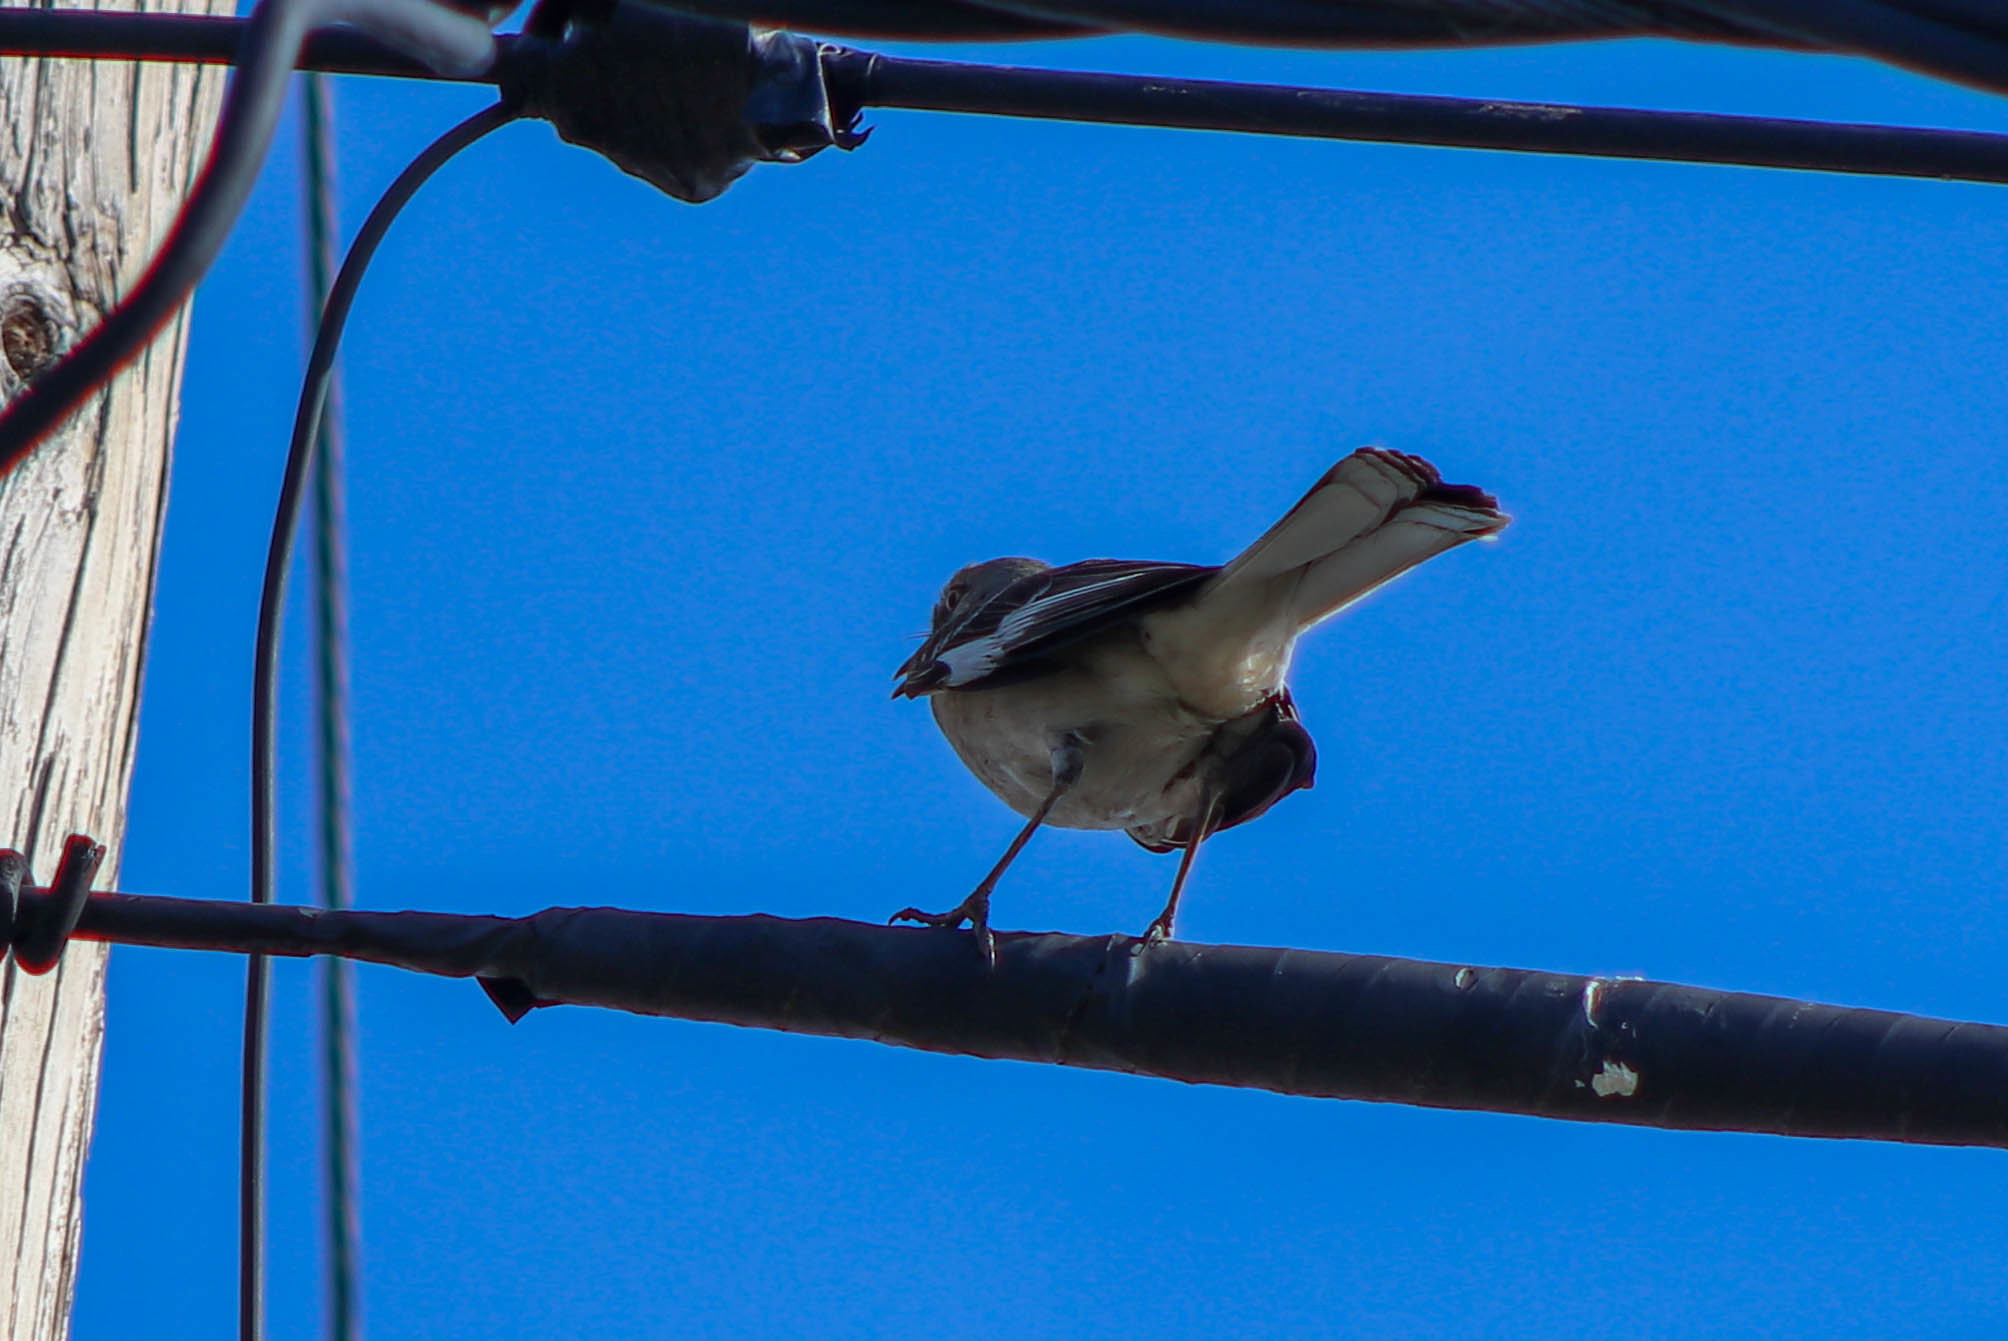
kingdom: Animalia
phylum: Chordata
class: Aves
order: Passeriformes
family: Mimidae
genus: Mimus
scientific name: Mimus polyglottos
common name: Northern mockingbird
